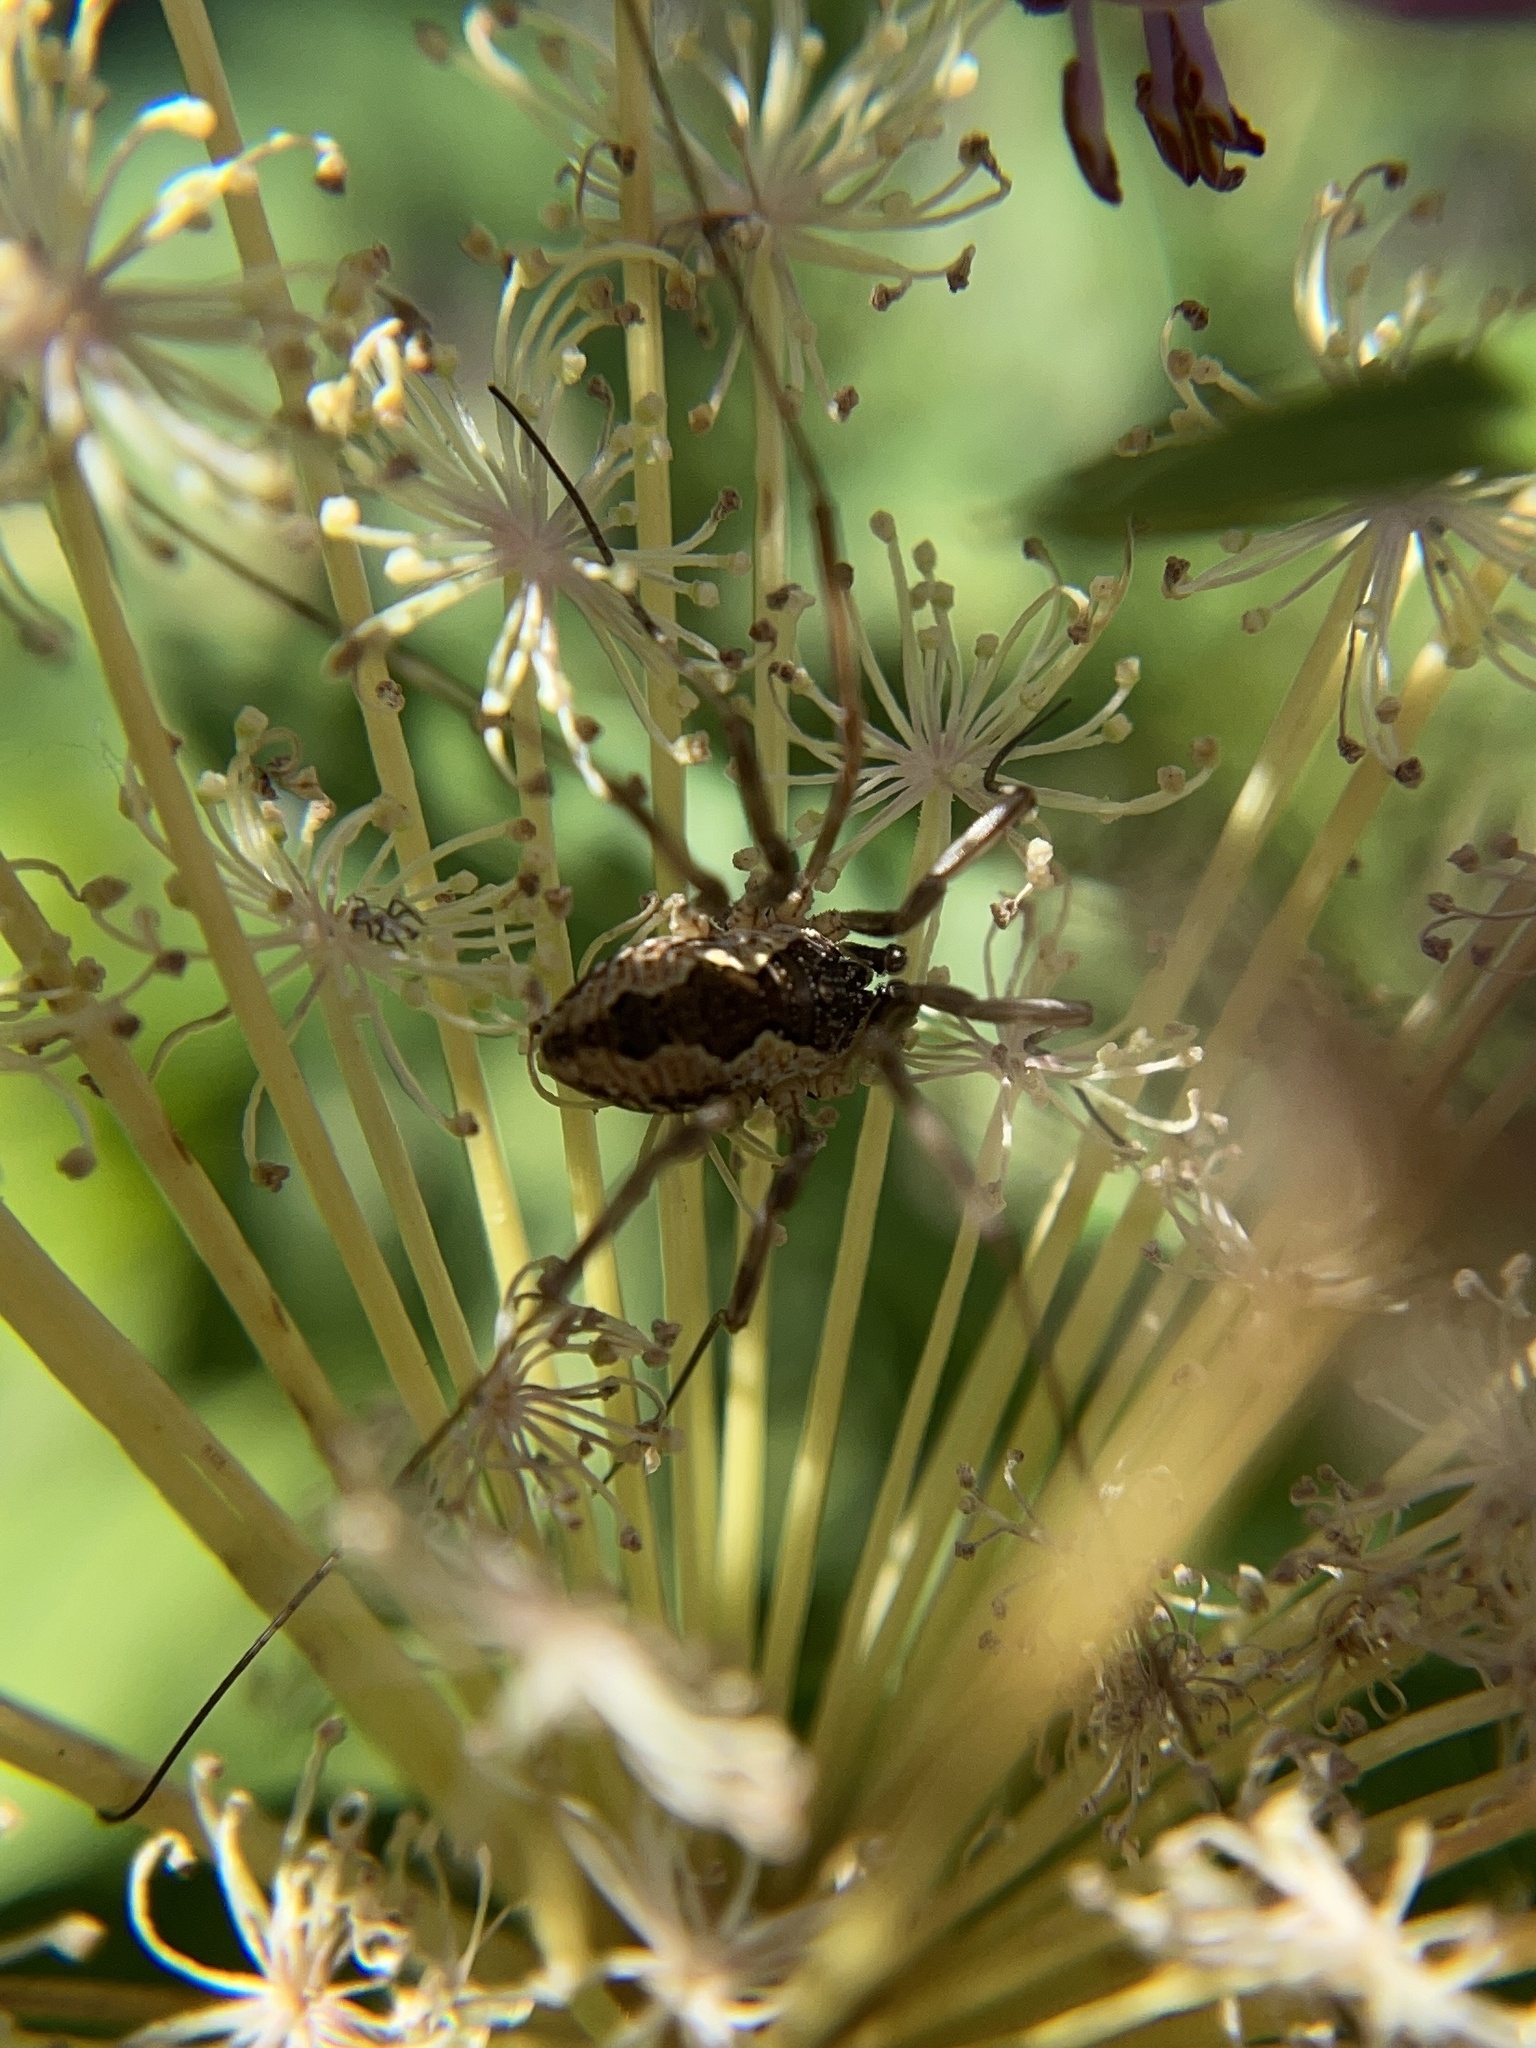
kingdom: Animalia
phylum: Arthropoda
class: Arachnida
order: Opiliones
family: Phalangiidae
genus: Mitopus
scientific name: Mitopus morio
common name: Saddleback harvestman
